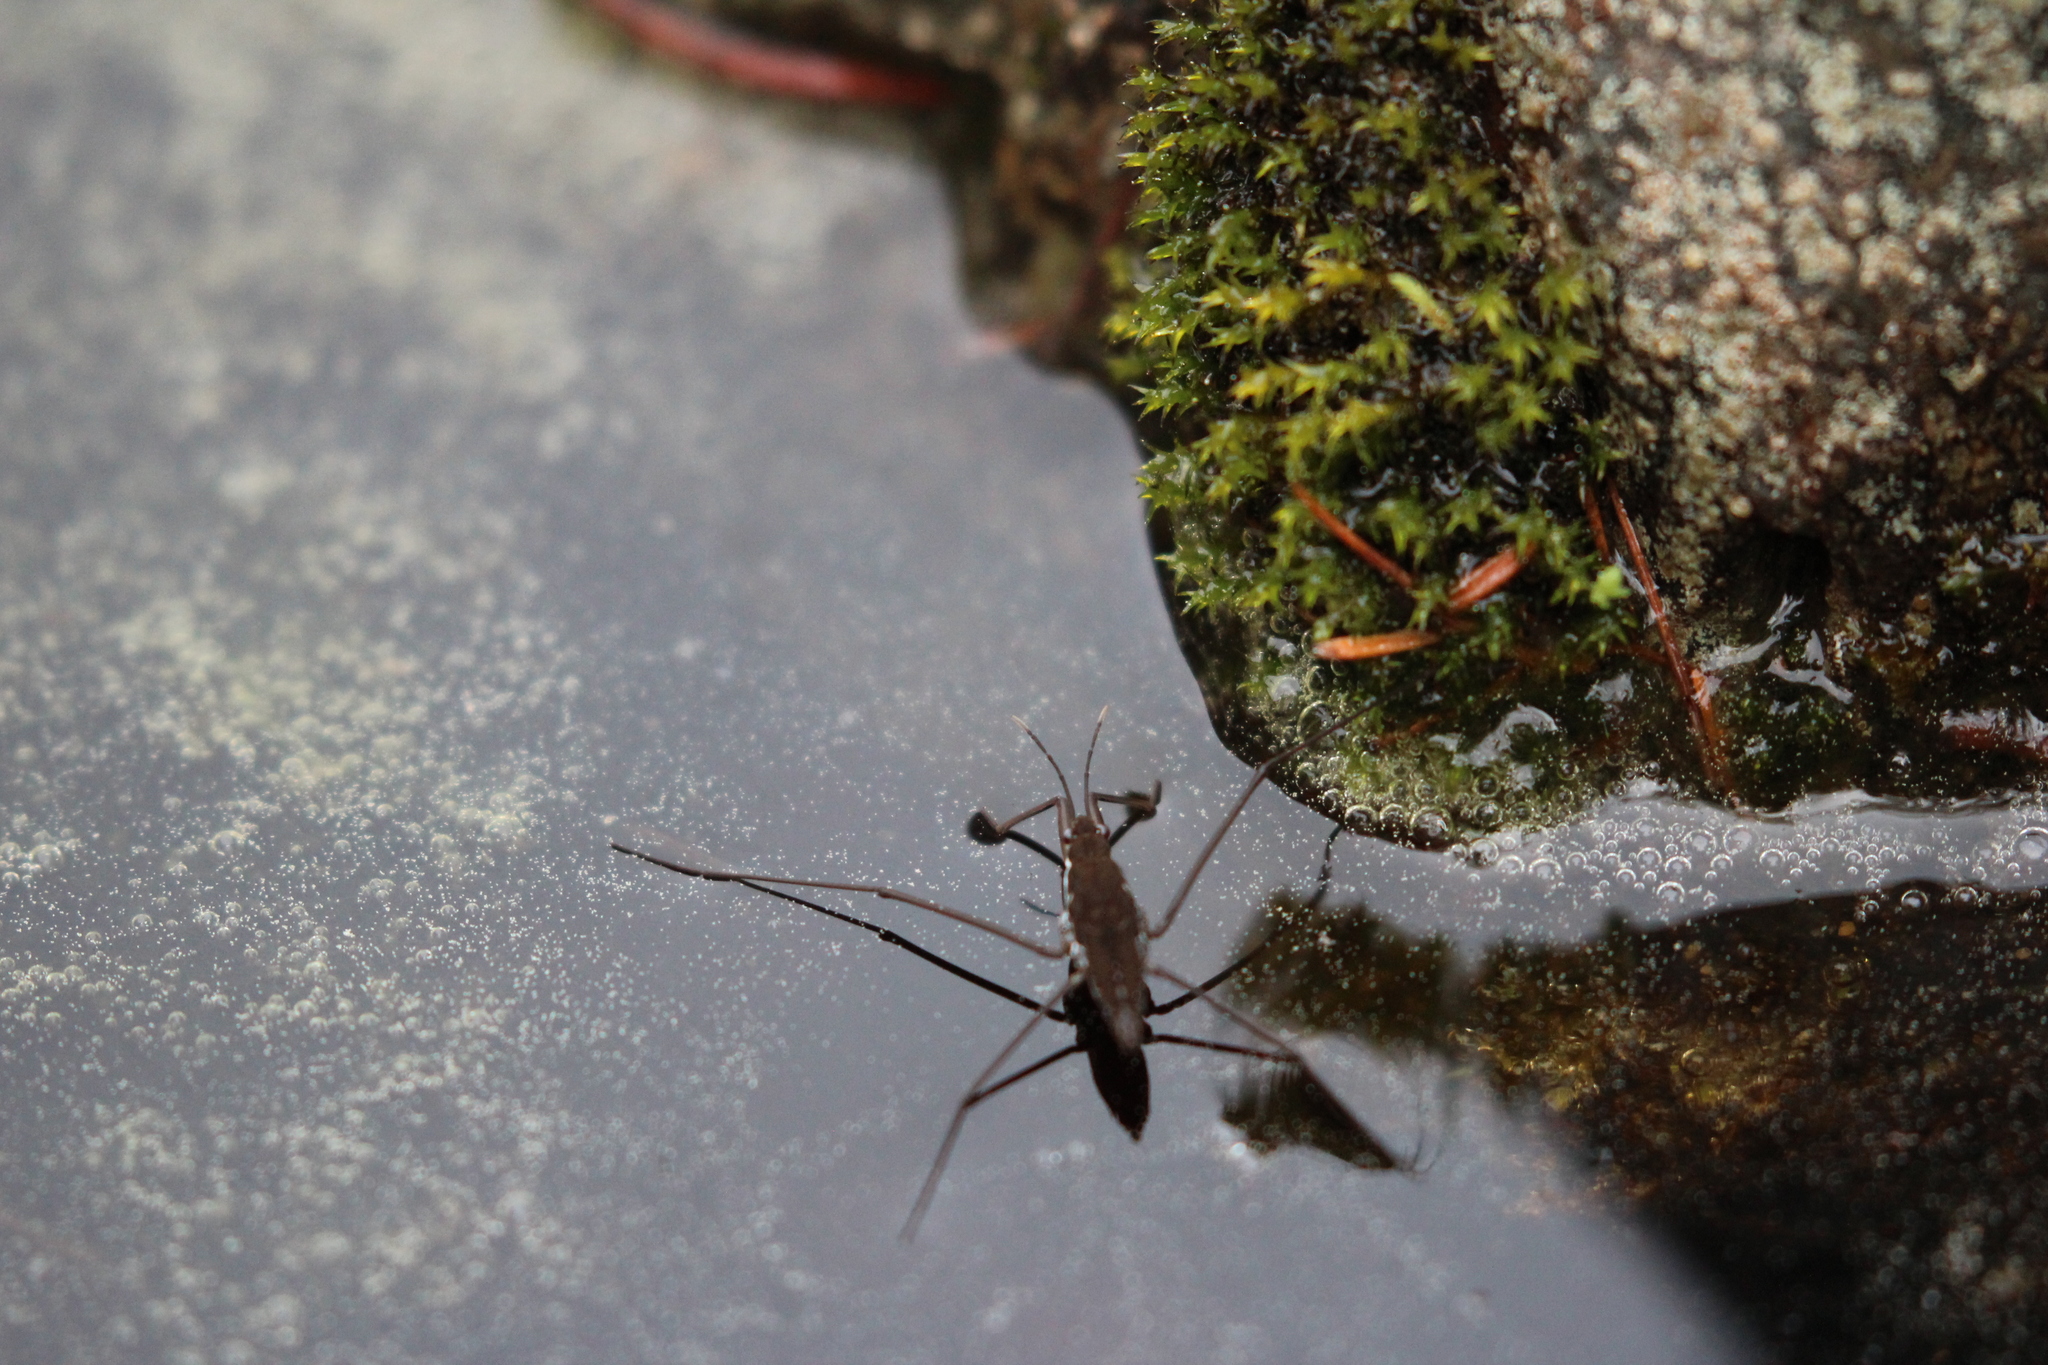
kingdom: Animalia
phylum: Arthropoda
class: Insecta
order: Hemiptera
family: Gerridae
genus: Aquarius
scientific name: Aquarius remigis
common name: Common water strider
